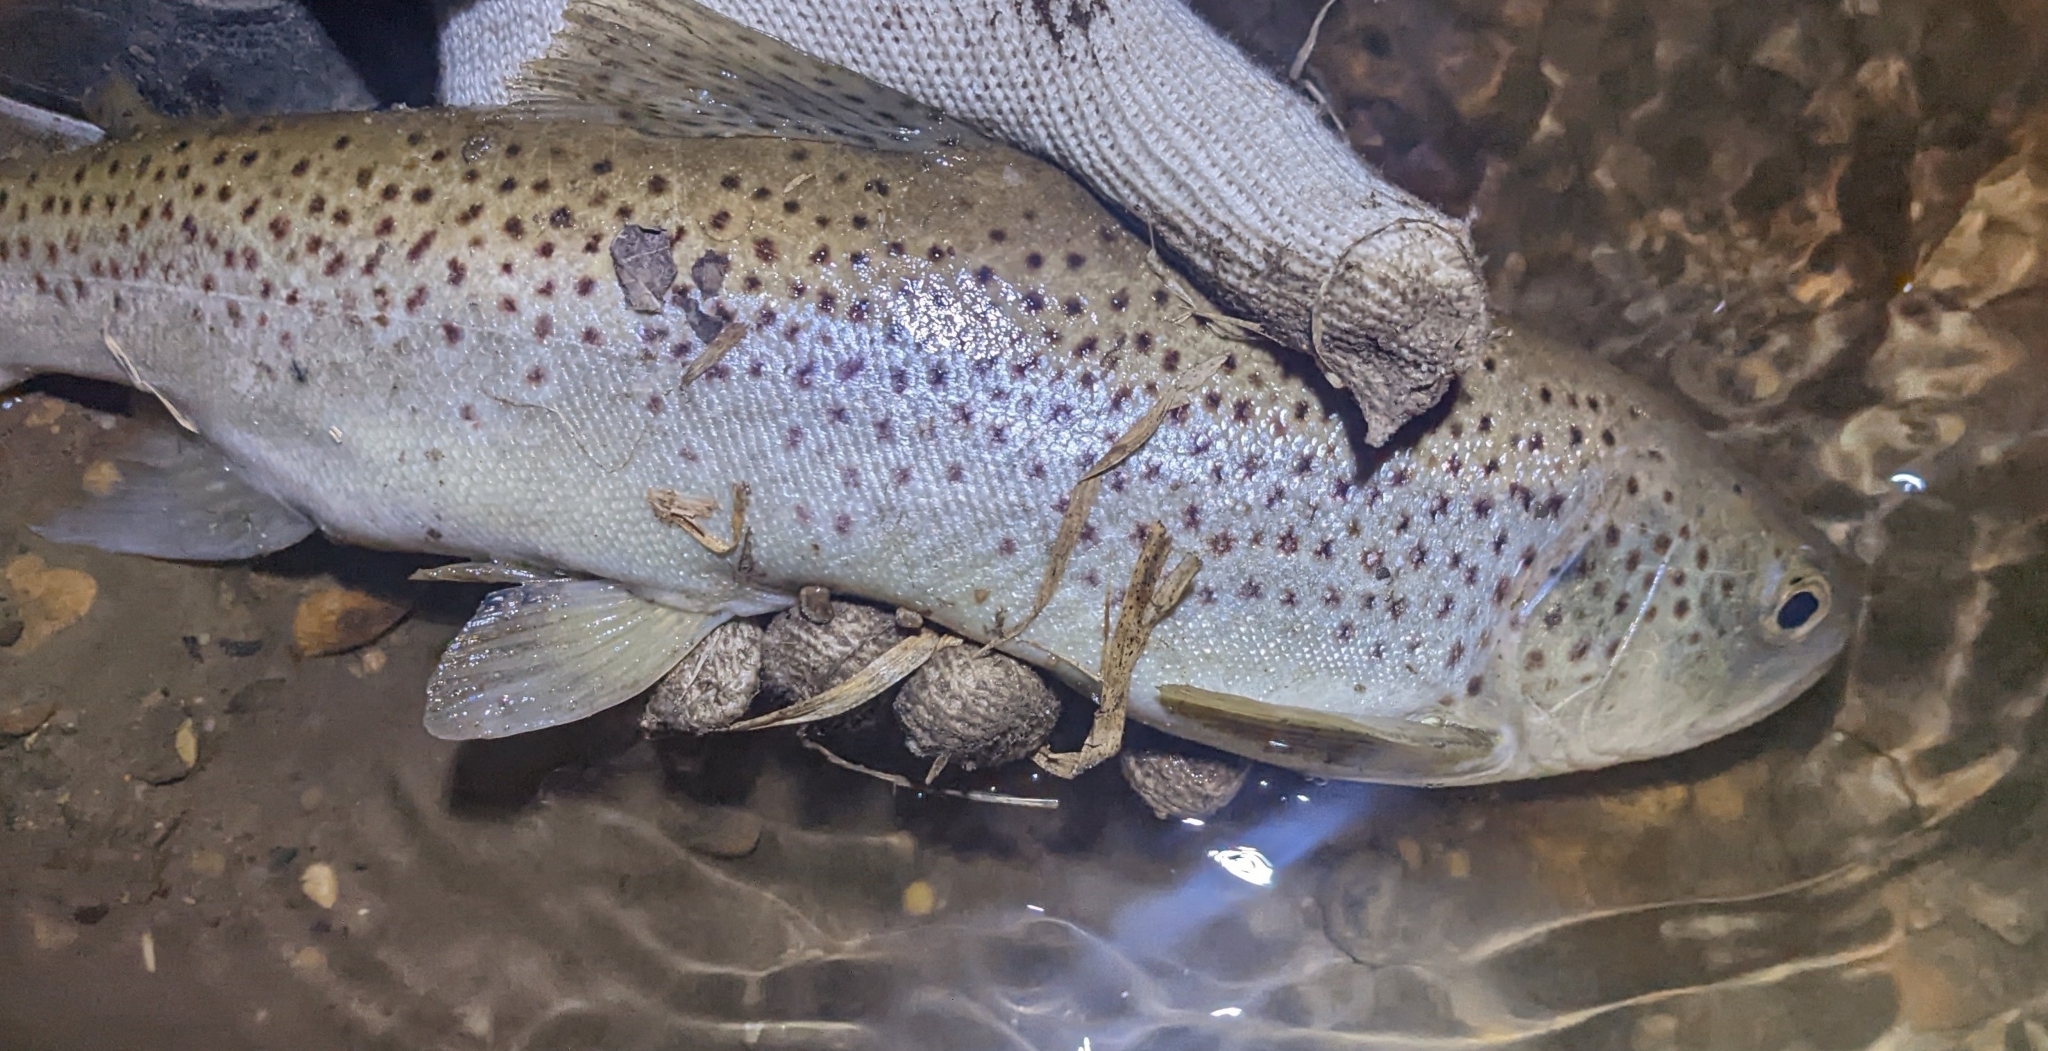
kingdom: Animalia
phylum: Chordata
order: Salmoniformes
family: Salmonidae
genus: Salmo
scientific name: Salmo trutta
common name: Brown trout
